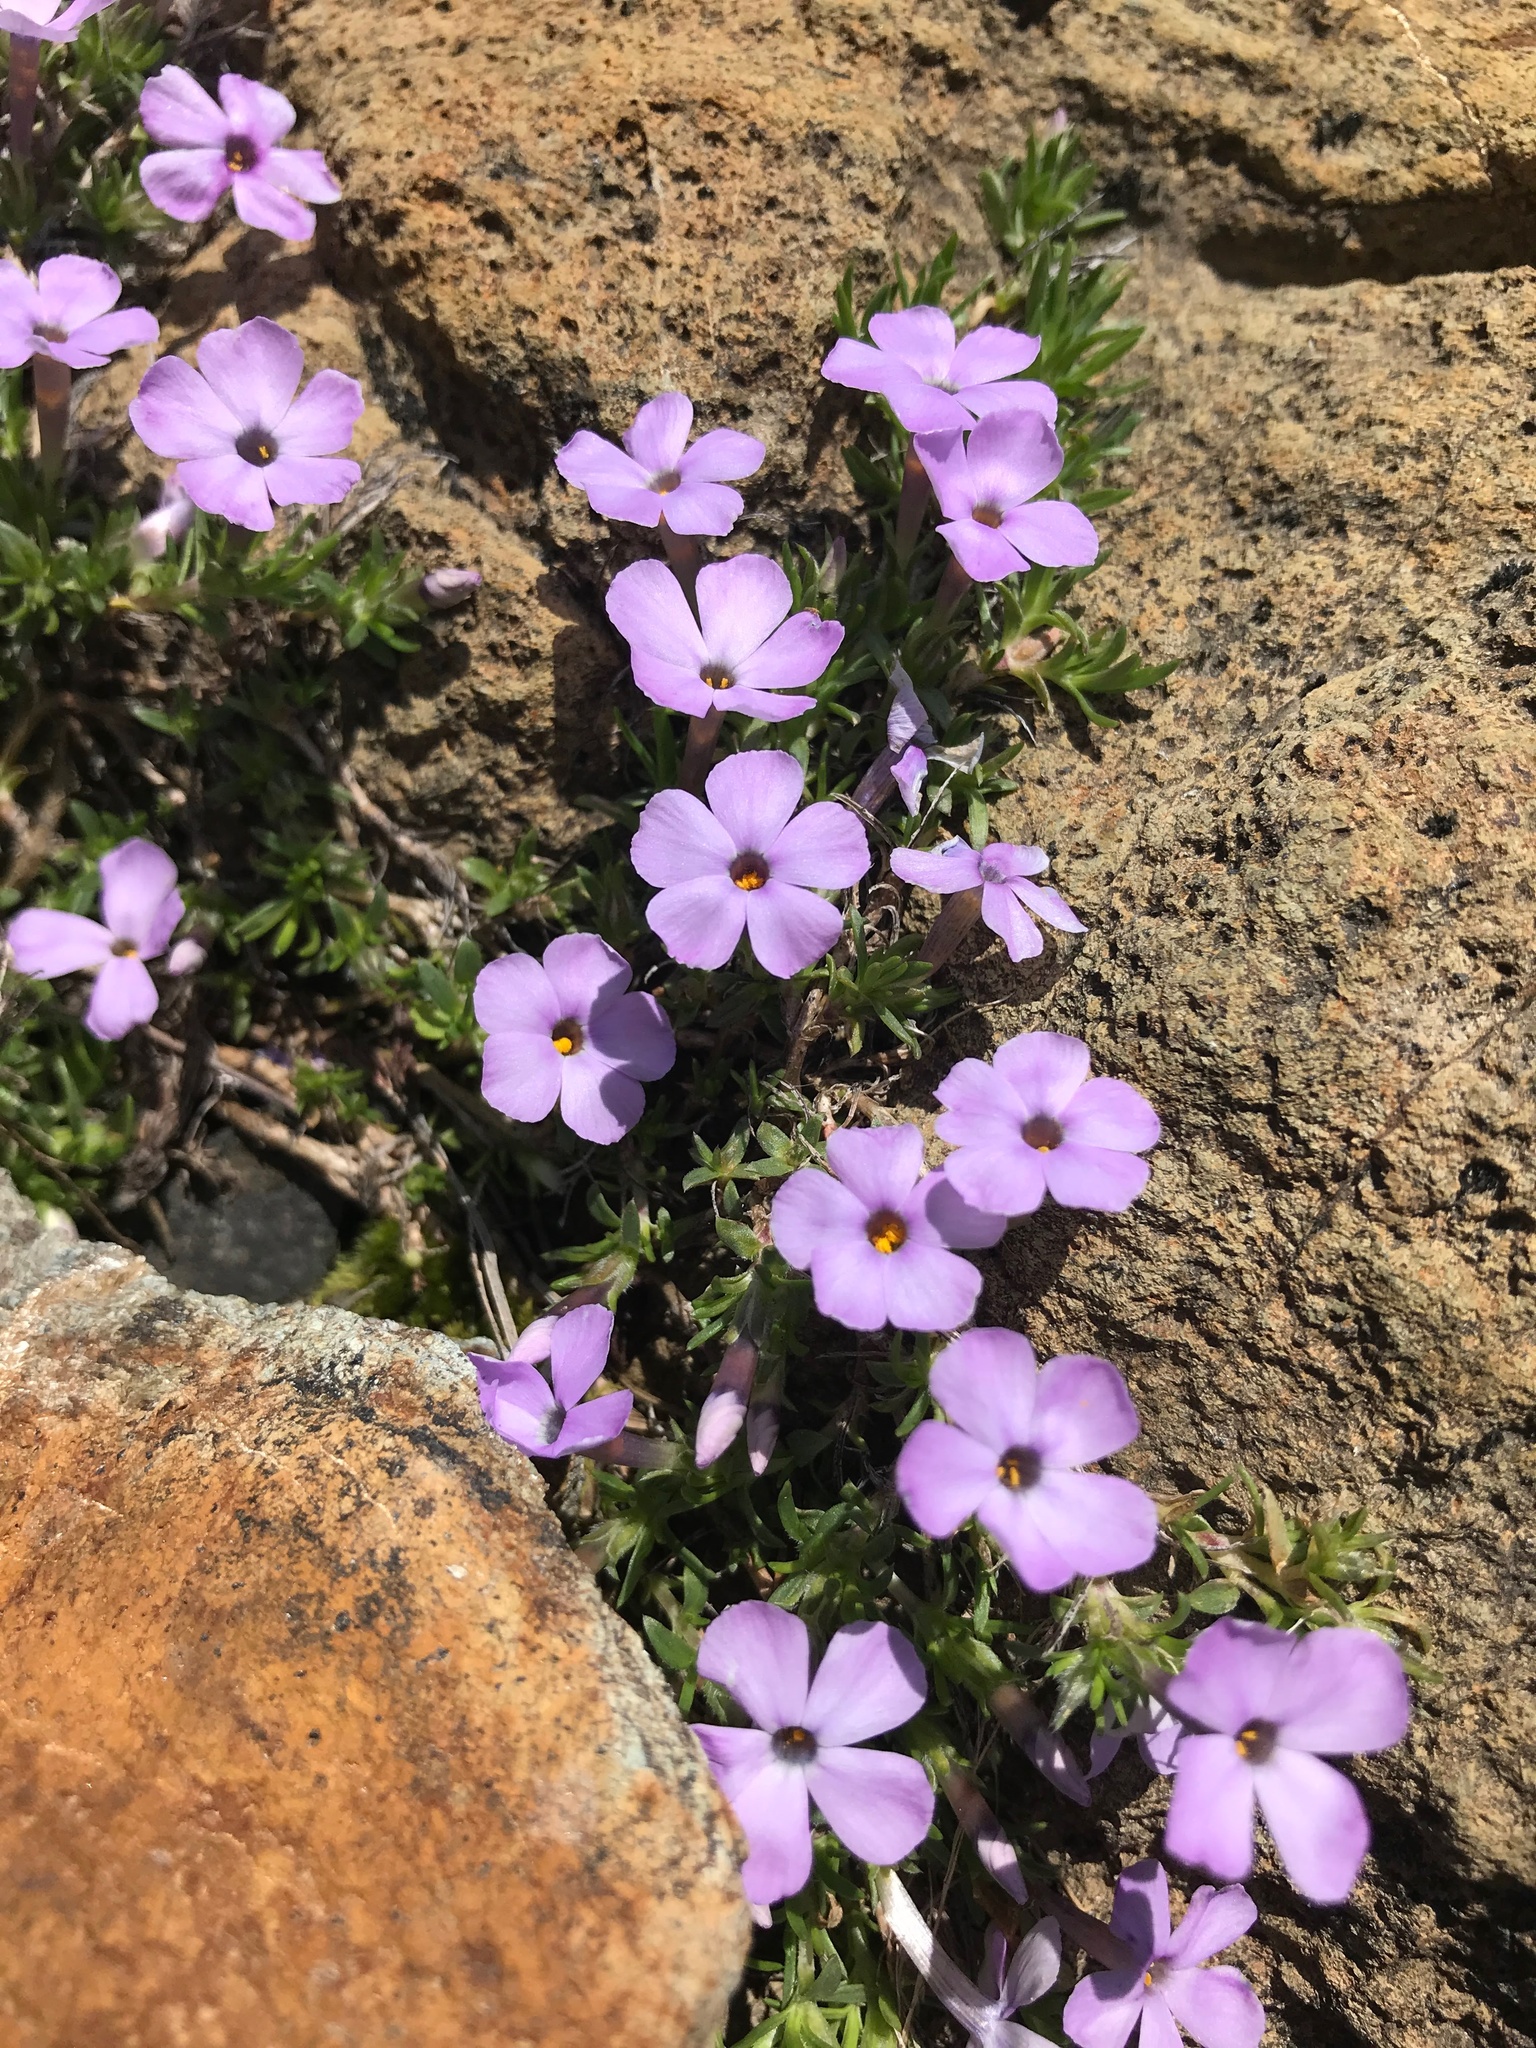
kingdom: Plantae
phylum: Tracheophyta
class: Magnoliopsida
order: Ericales
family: Polemoniaceae
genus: Phlox
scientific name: Phlox diffusa
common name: Mat phlox
